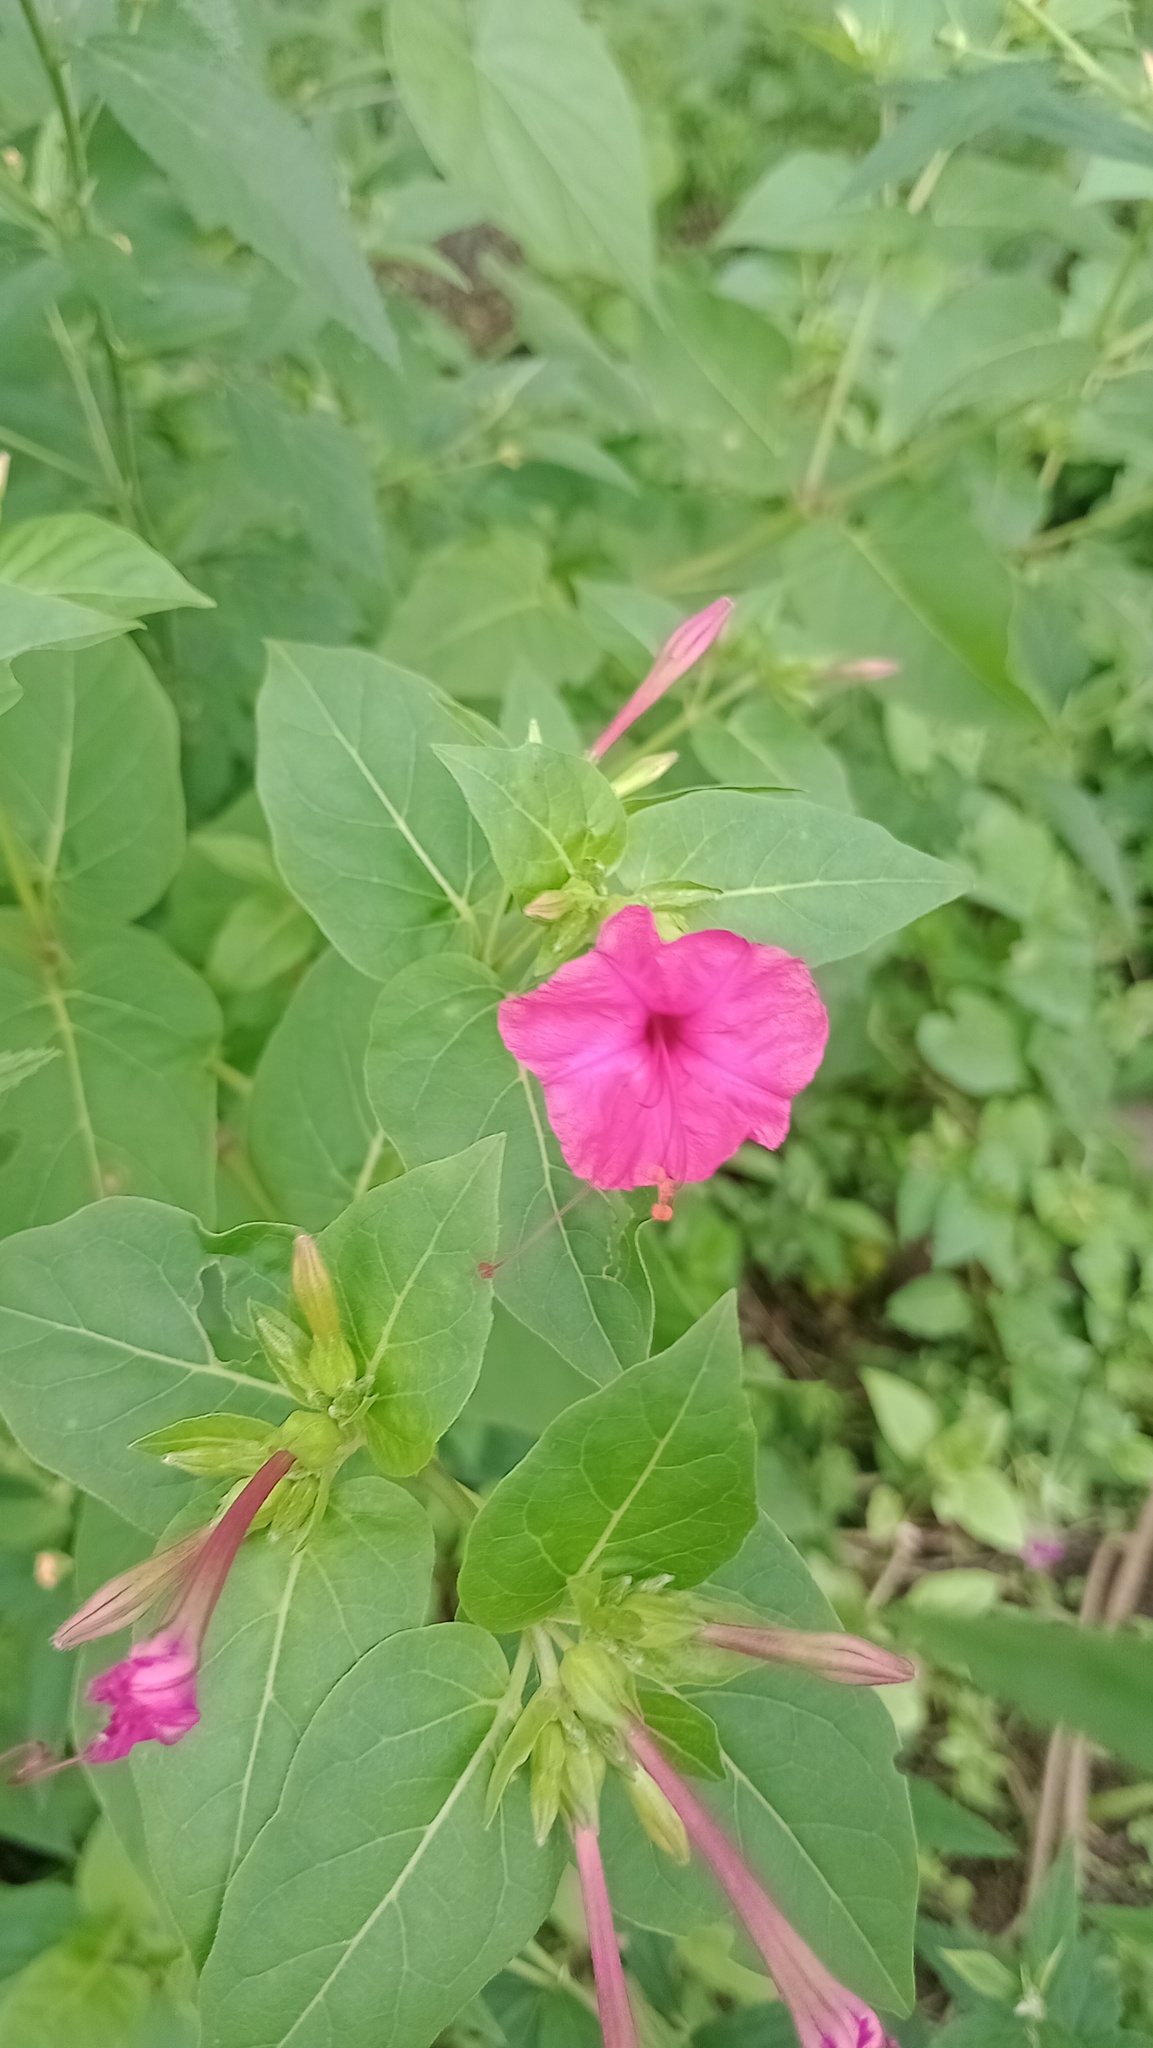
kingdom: Plantae
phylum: Tracheophyta
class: Magnoliopsida
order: Caryophyllales
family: Nyctaginaceae
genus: Mirabilis
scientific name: Mirabilis jalapa
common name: Marvel-of-peru
